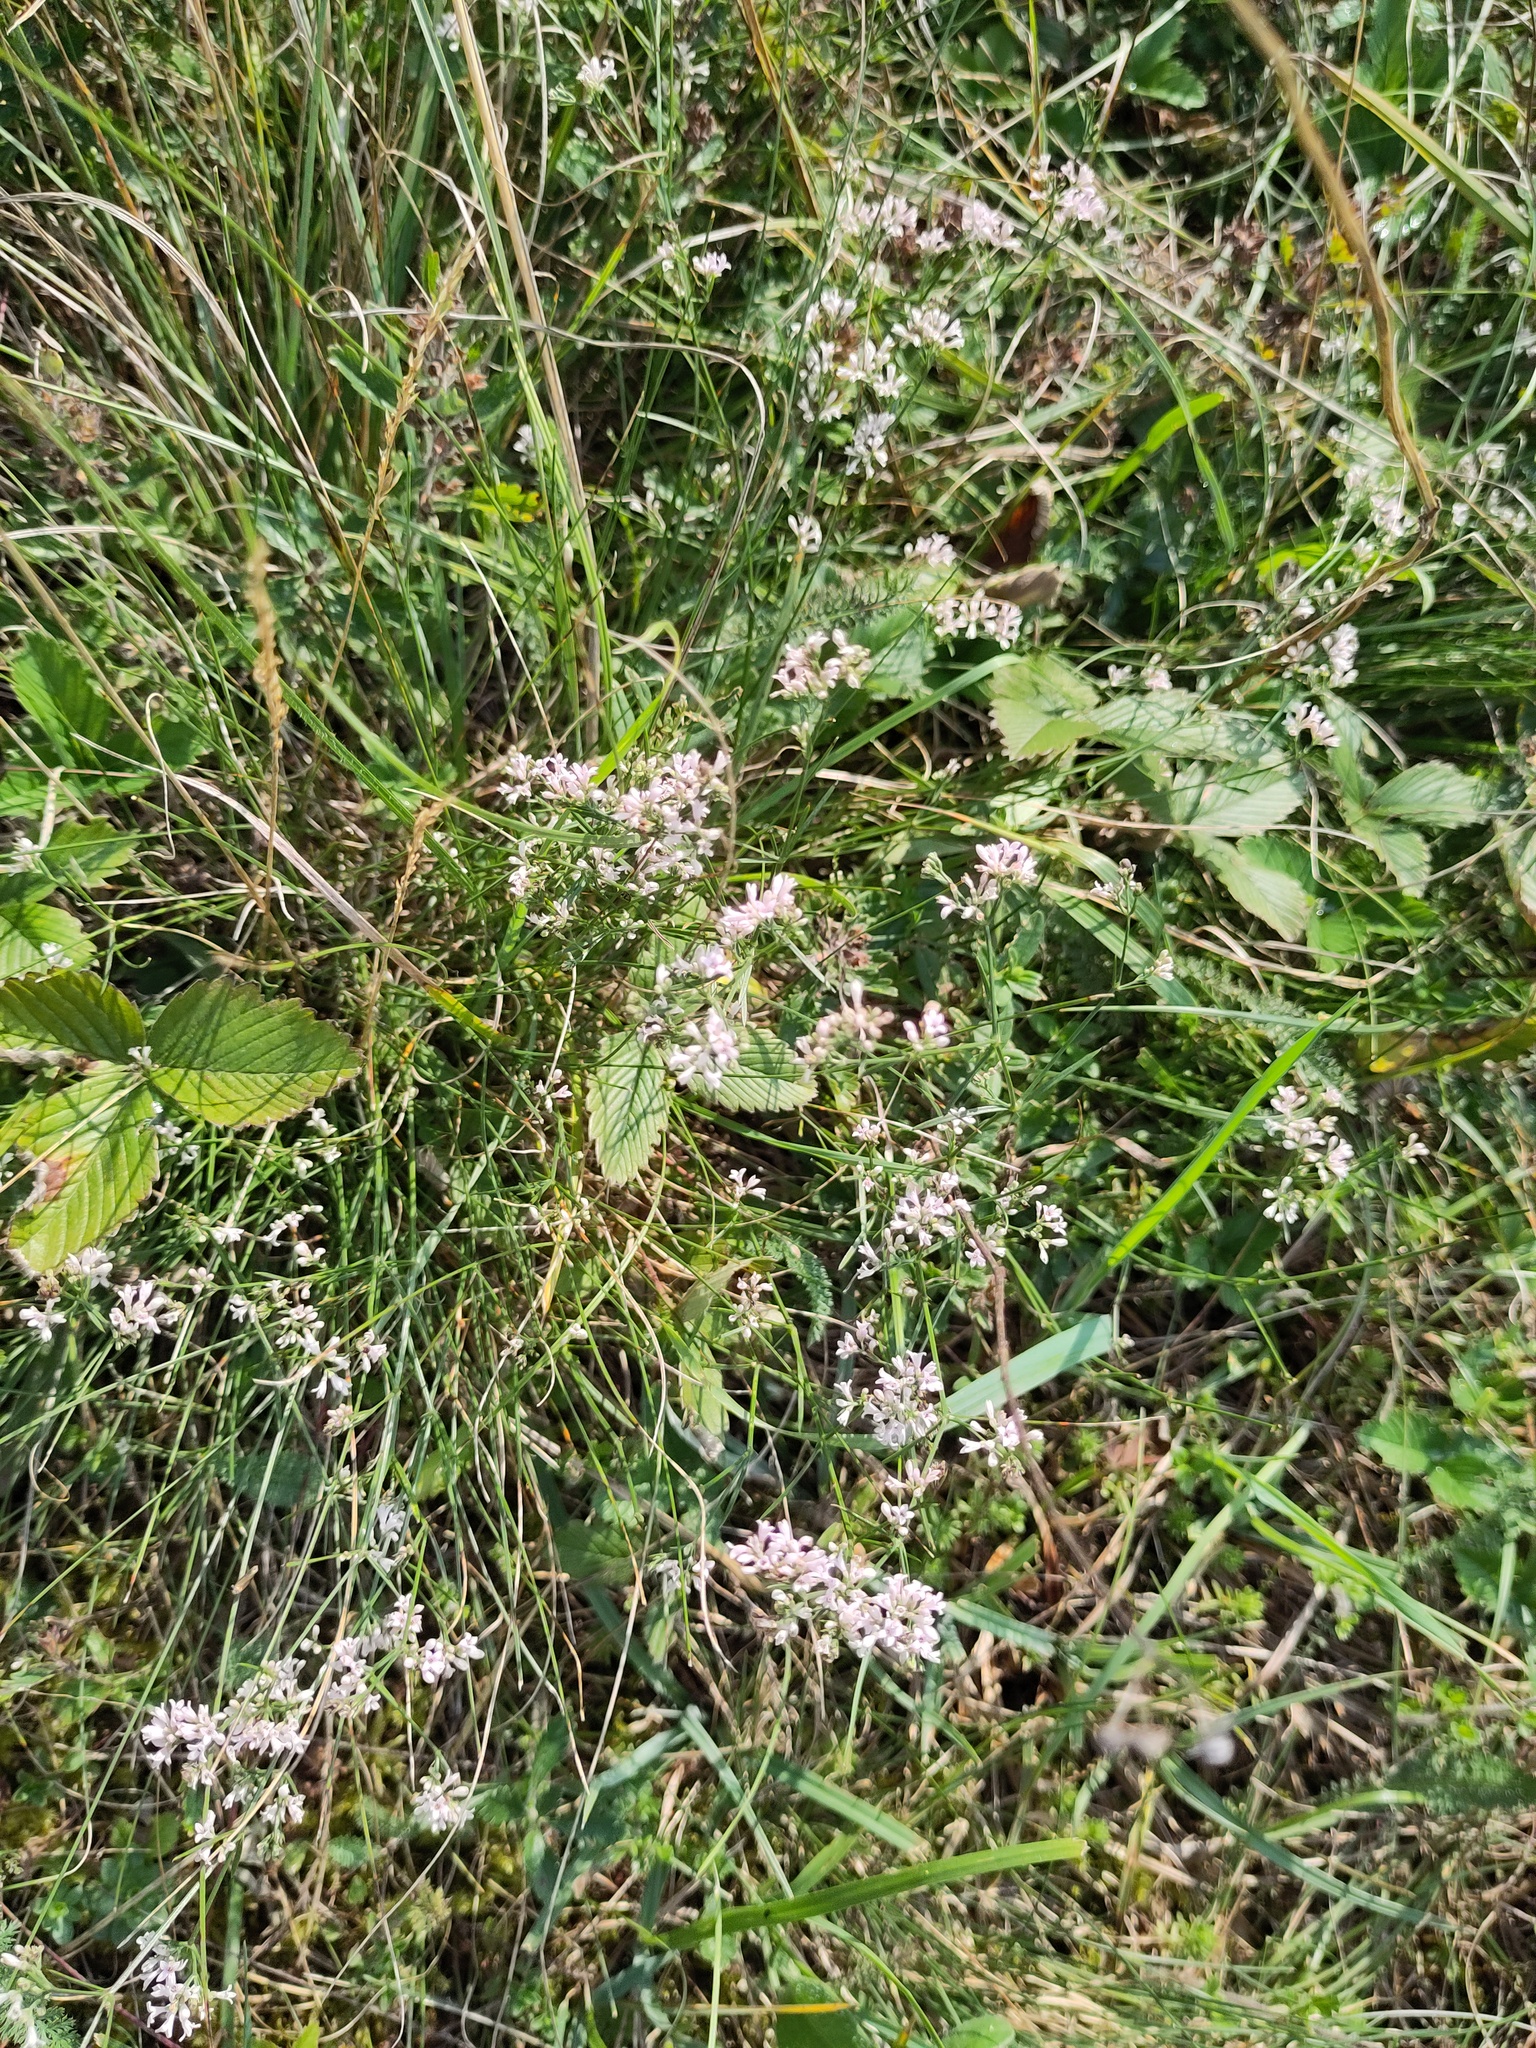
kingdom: Plantae
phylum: Tracheophyta
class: Magnoliopsida
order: Gentianales
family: Rubiaceae
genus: Cynanchica
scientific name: Cynanchica pyrenaica
